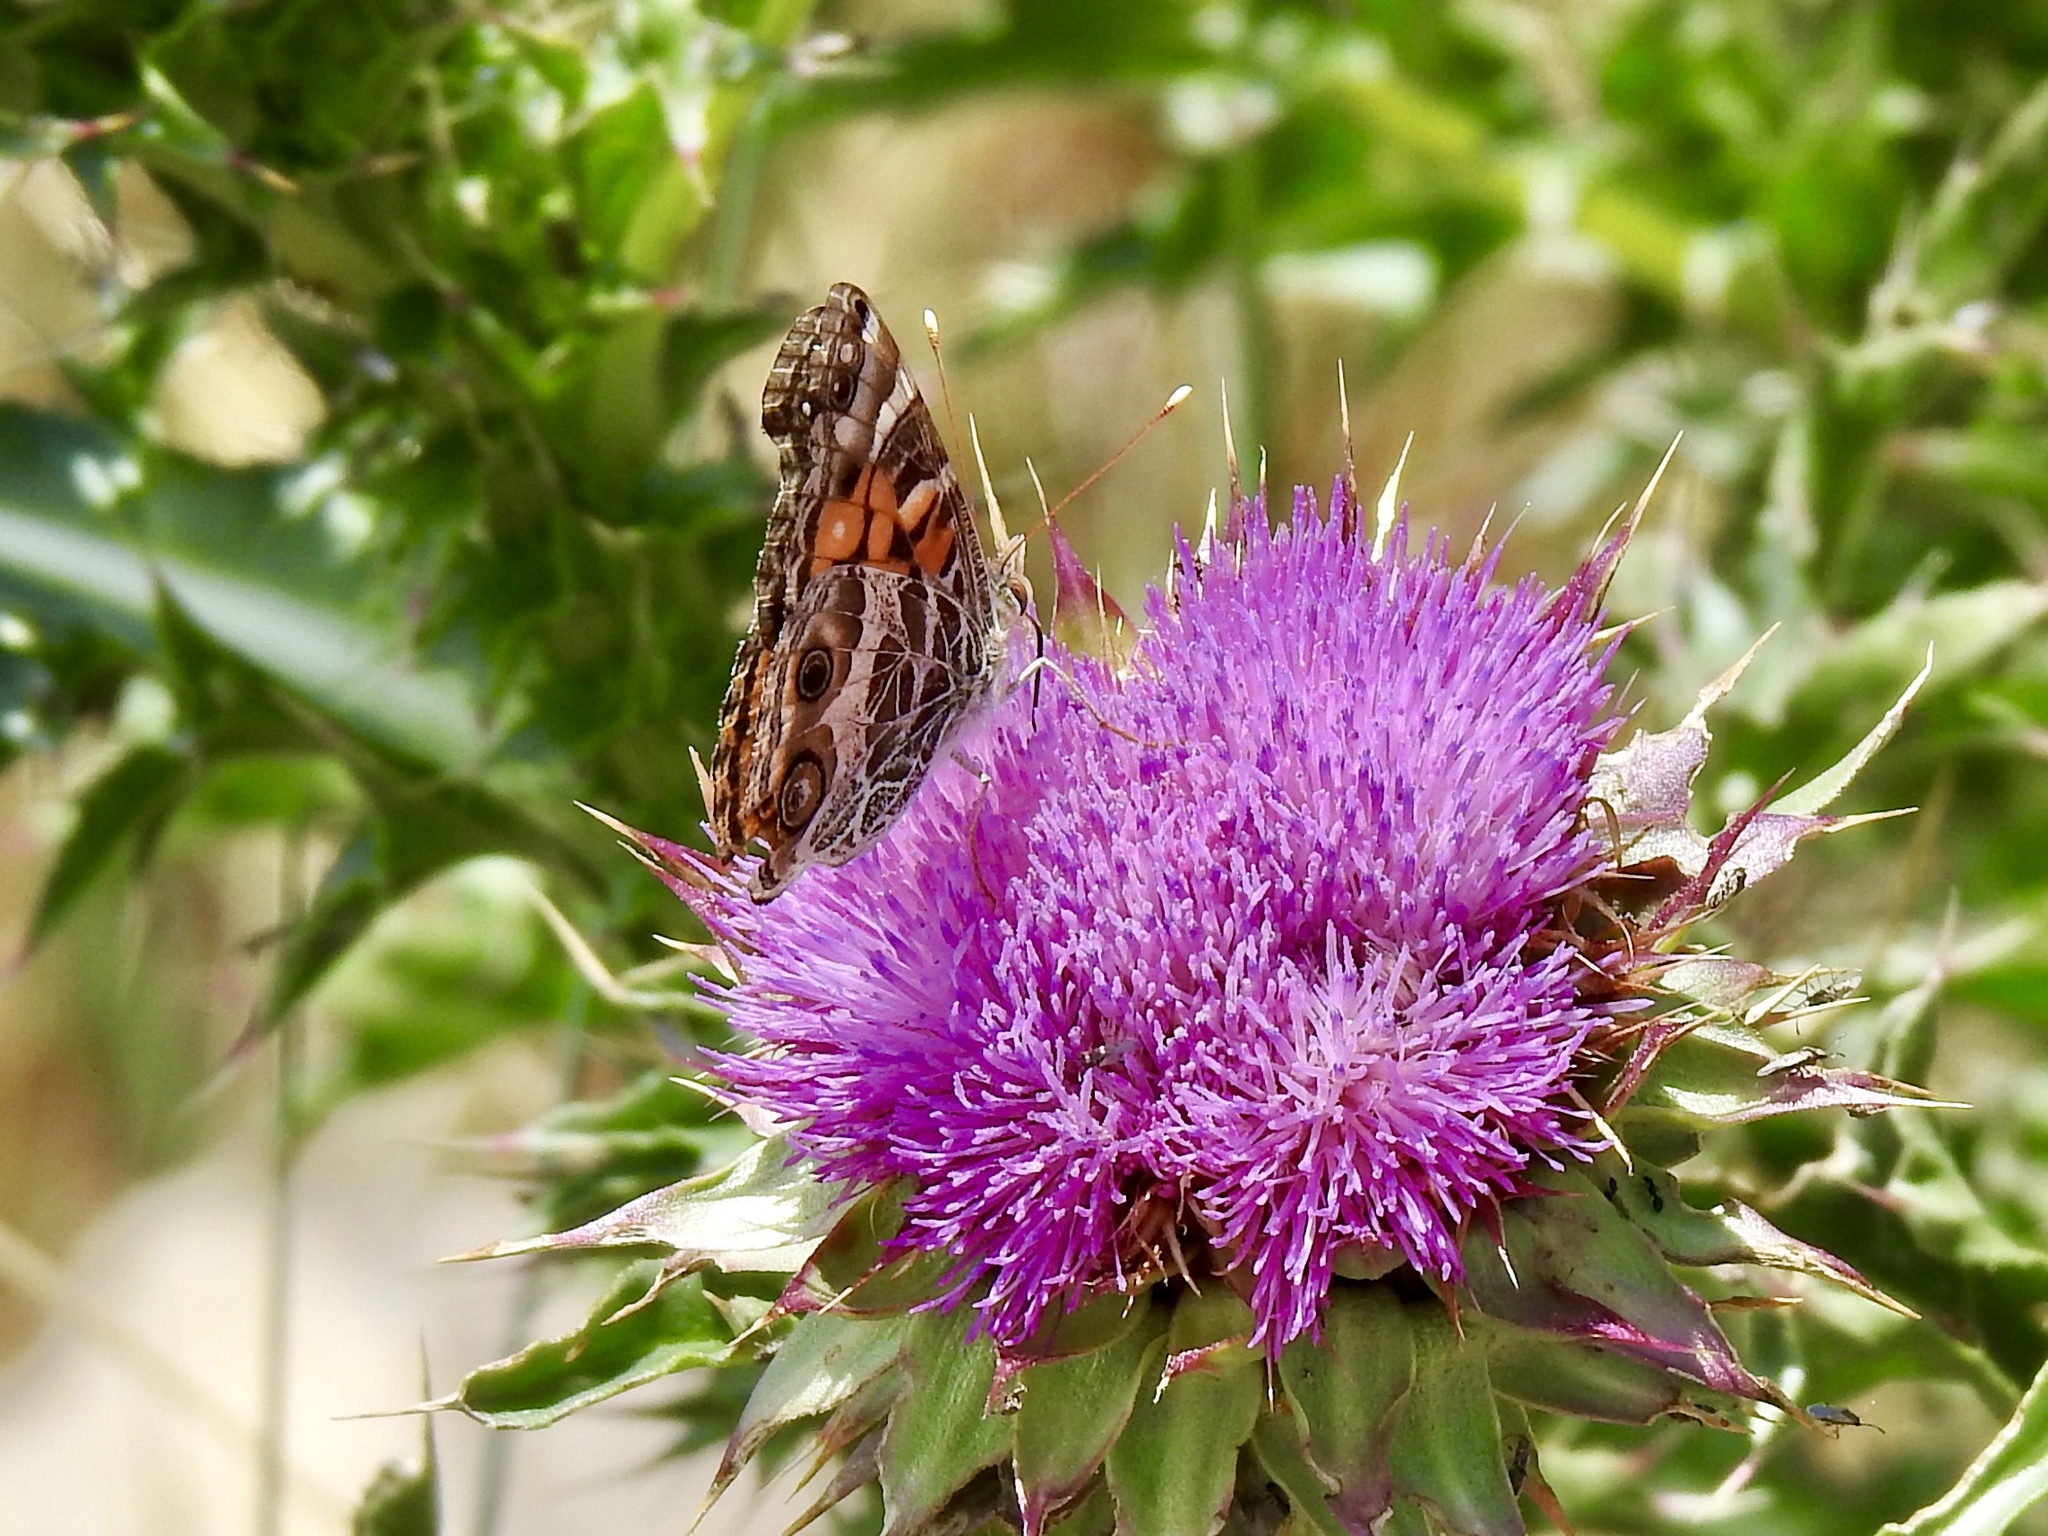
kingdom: Animalia
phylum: Arthropoda
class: Insecta
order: Lepidoptera
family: Nymphalidae
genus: Vanessa
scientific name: Vanessa virginiensis
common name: American lady
